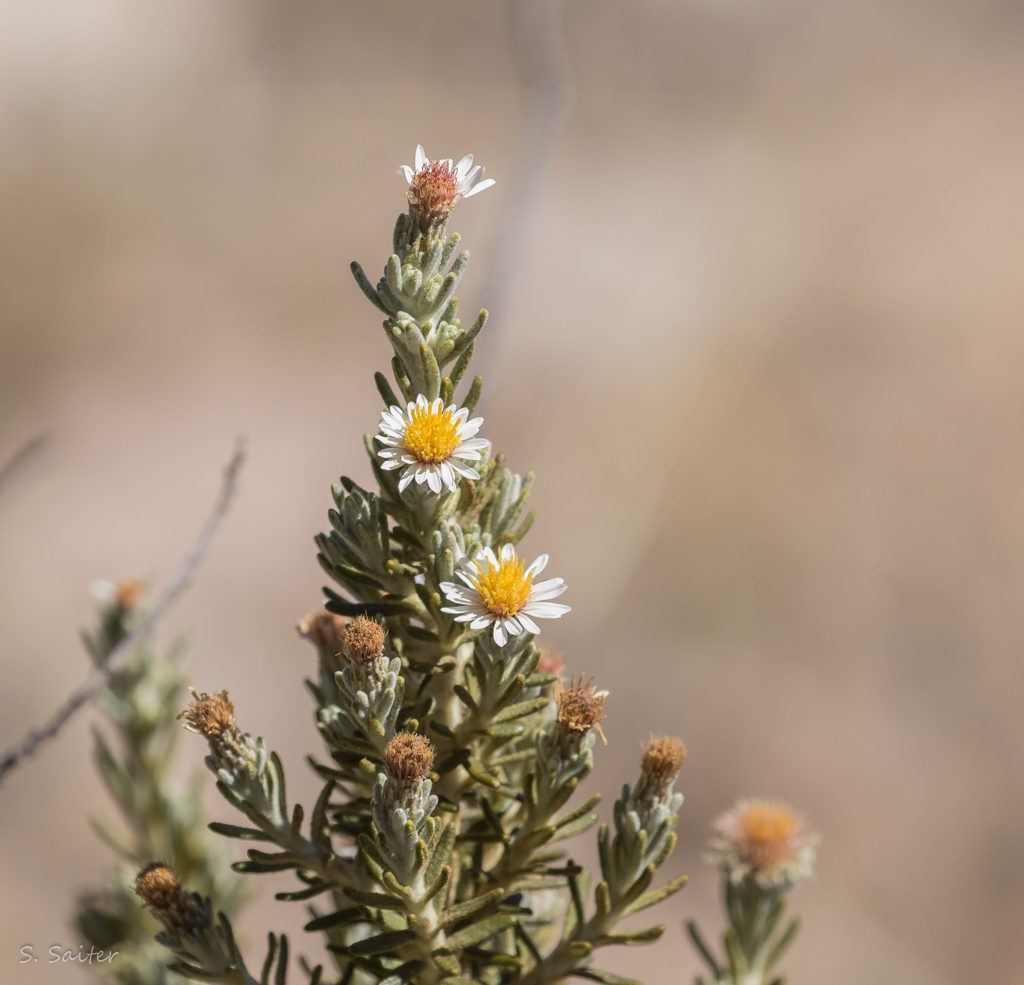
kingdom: Plantae
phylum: Tracheophyta
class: Magnoliopsida
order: Asterales
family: Asteraceae
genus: Diplostephium
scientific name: Diplostephium meyenii
